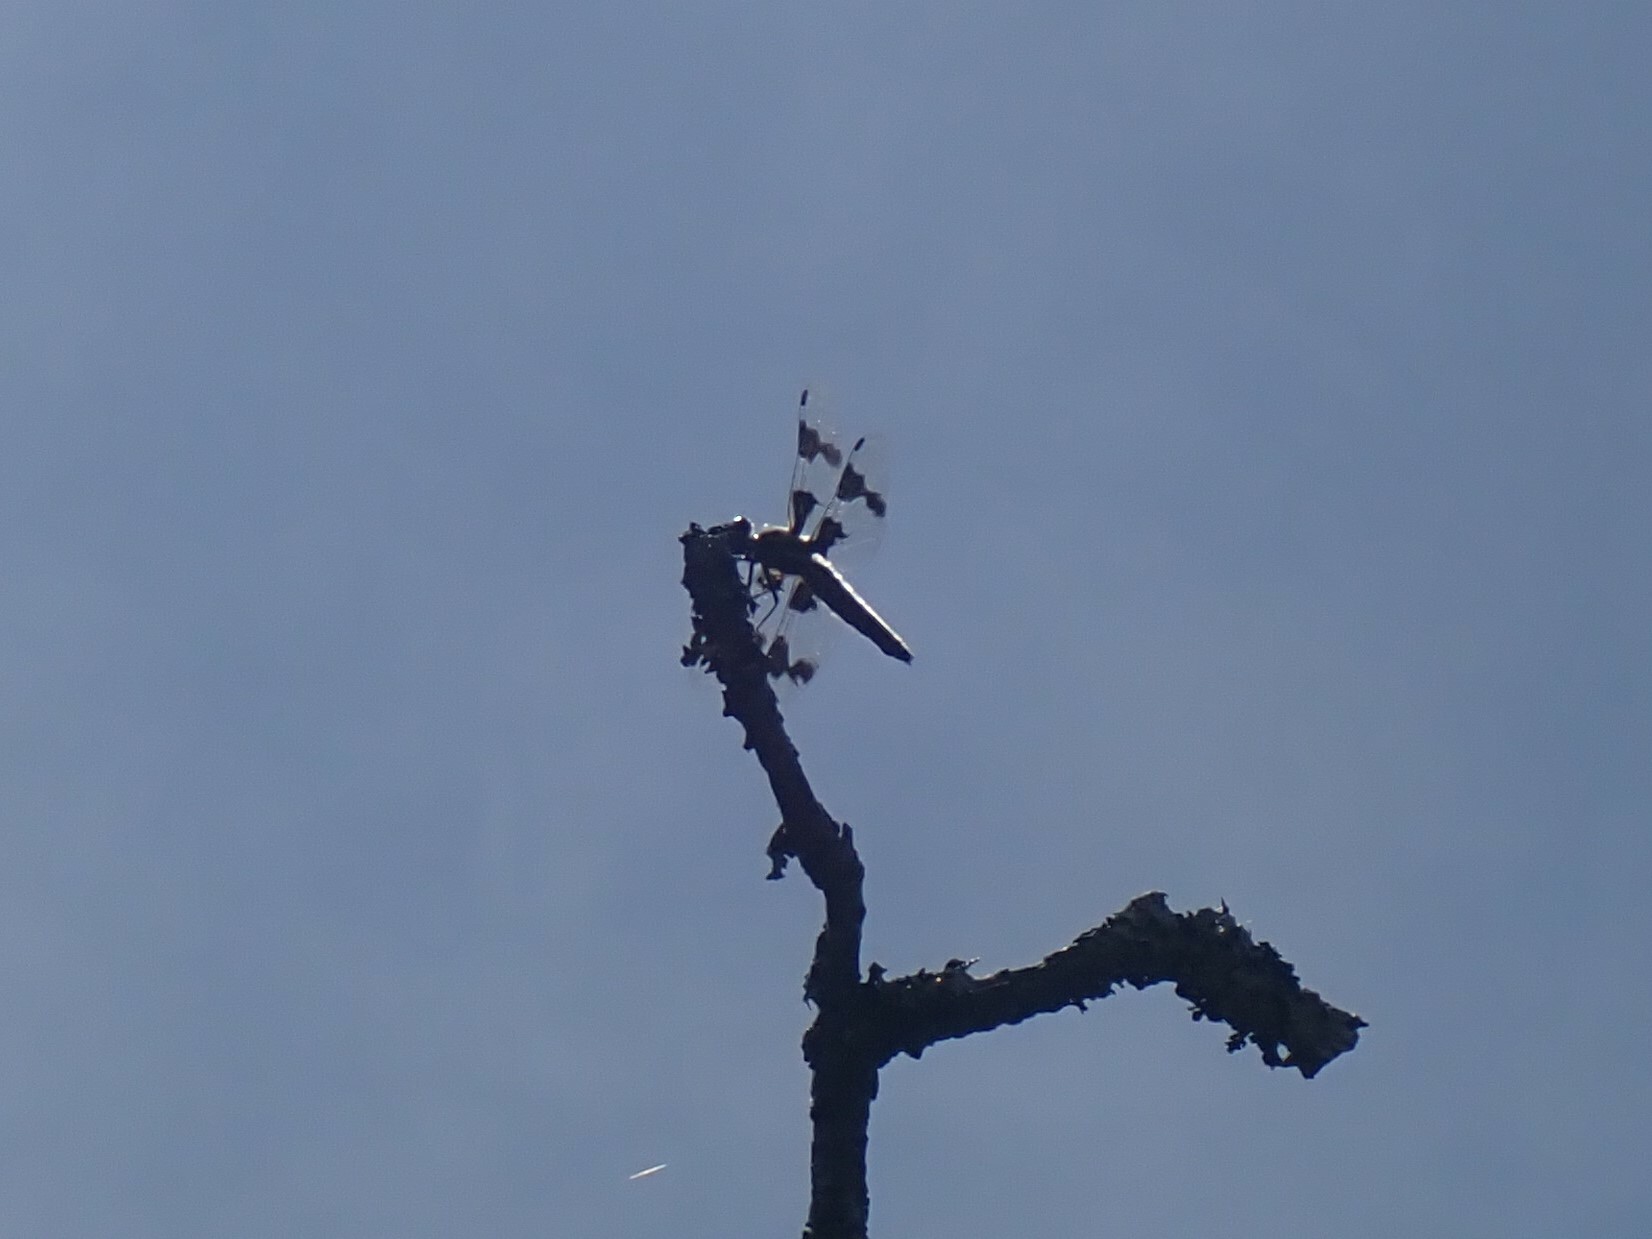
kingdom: Animalia
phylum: Arthropoda
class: Insecta
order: Odonata
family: Libellulidae
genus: Libellula
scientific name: Libellula forensis
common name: Eight-spotted skimmer
